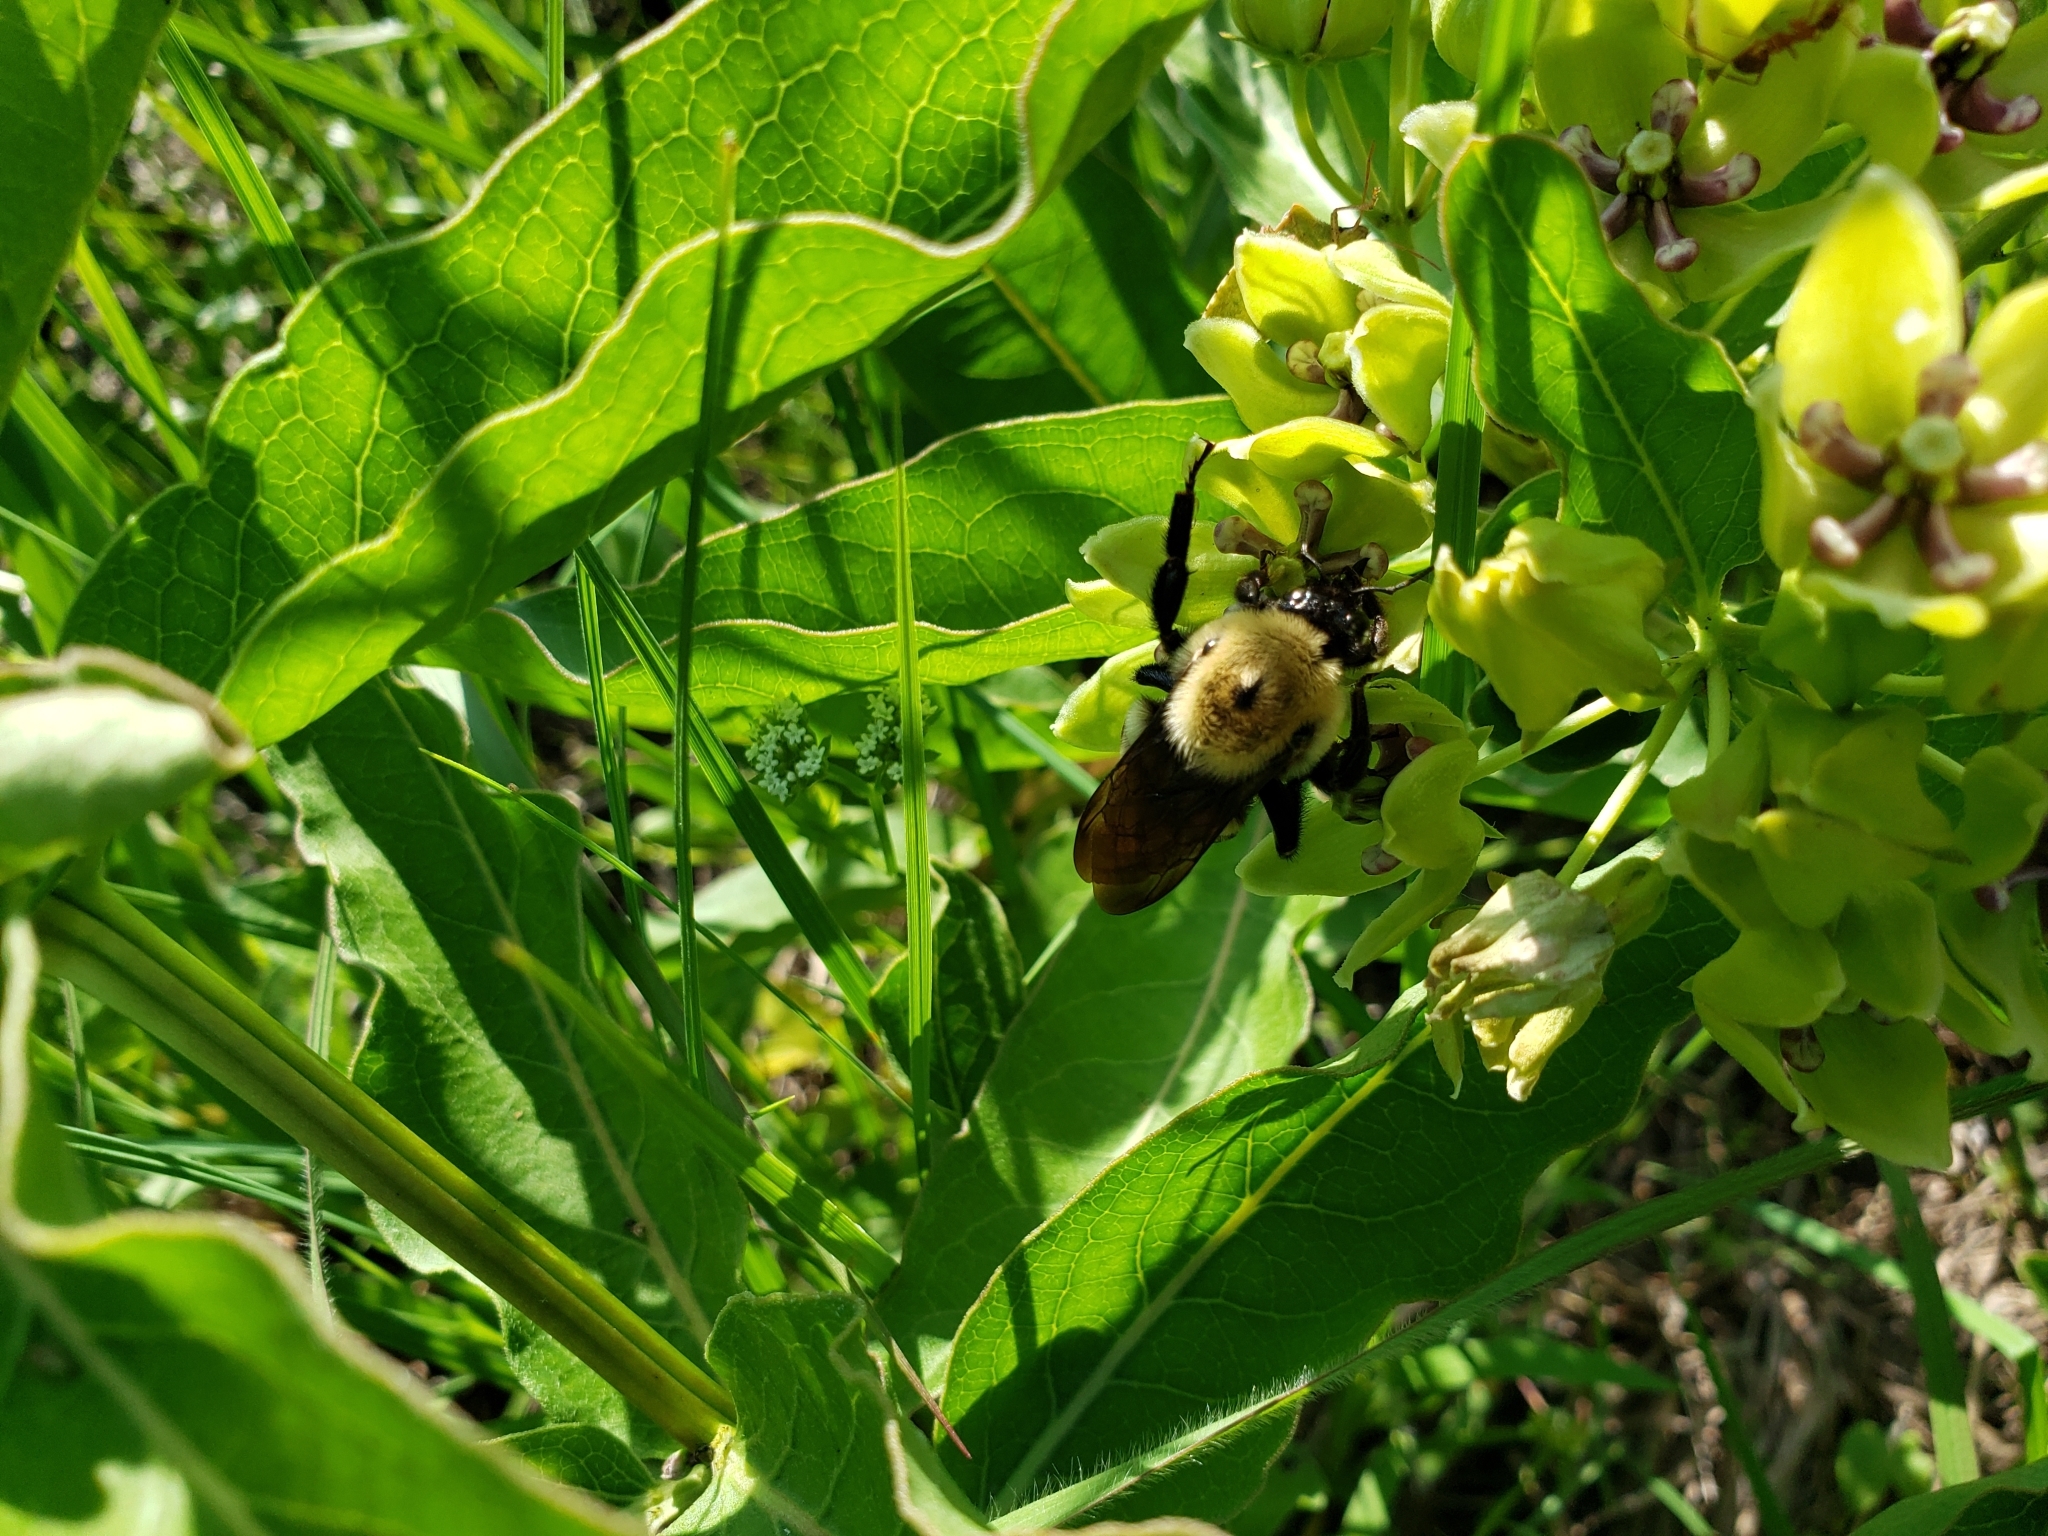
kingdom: Animalia
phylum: Arthropoda
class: Insecta
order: Hymenoptera
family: Apidae
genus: Bombus
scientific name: Bombus griseocollis
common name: Brown-belted bumble bee
